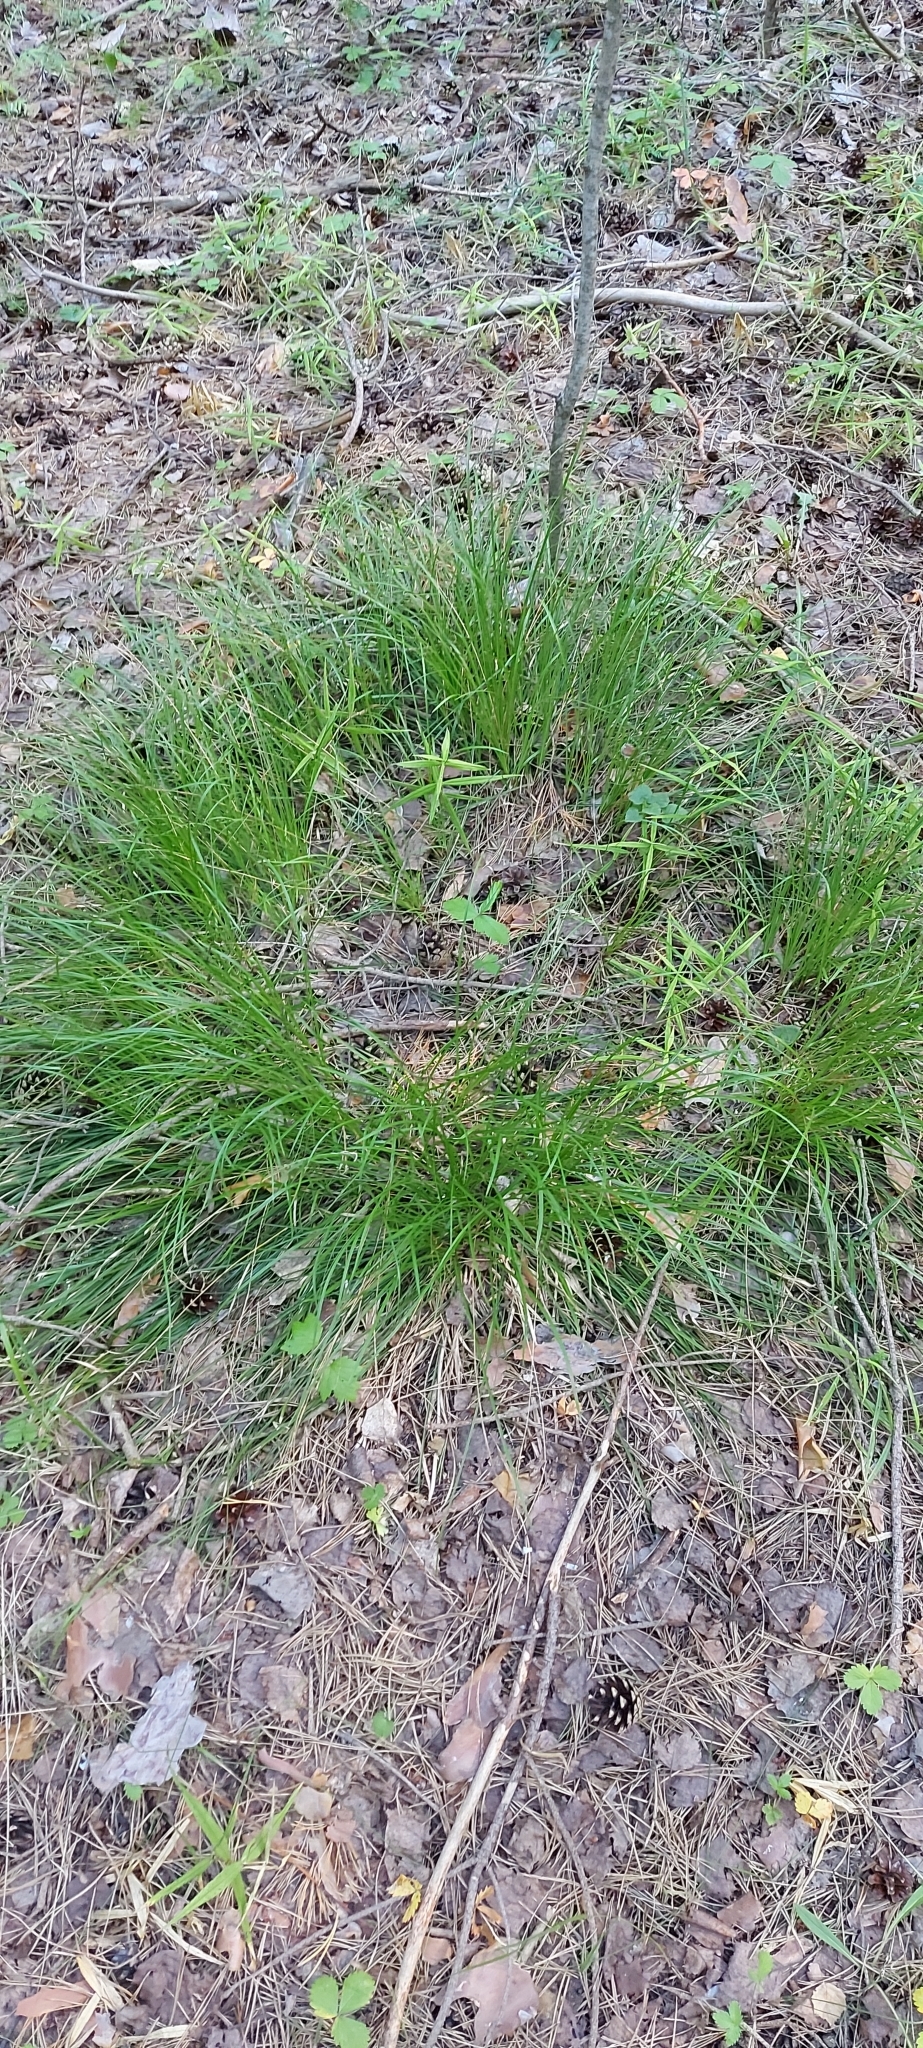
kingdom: Plantae
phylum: Tracheophyta
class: Liliopsida
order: Poales
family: Cyperaceae
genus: Carex
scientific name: Carex rhizina
